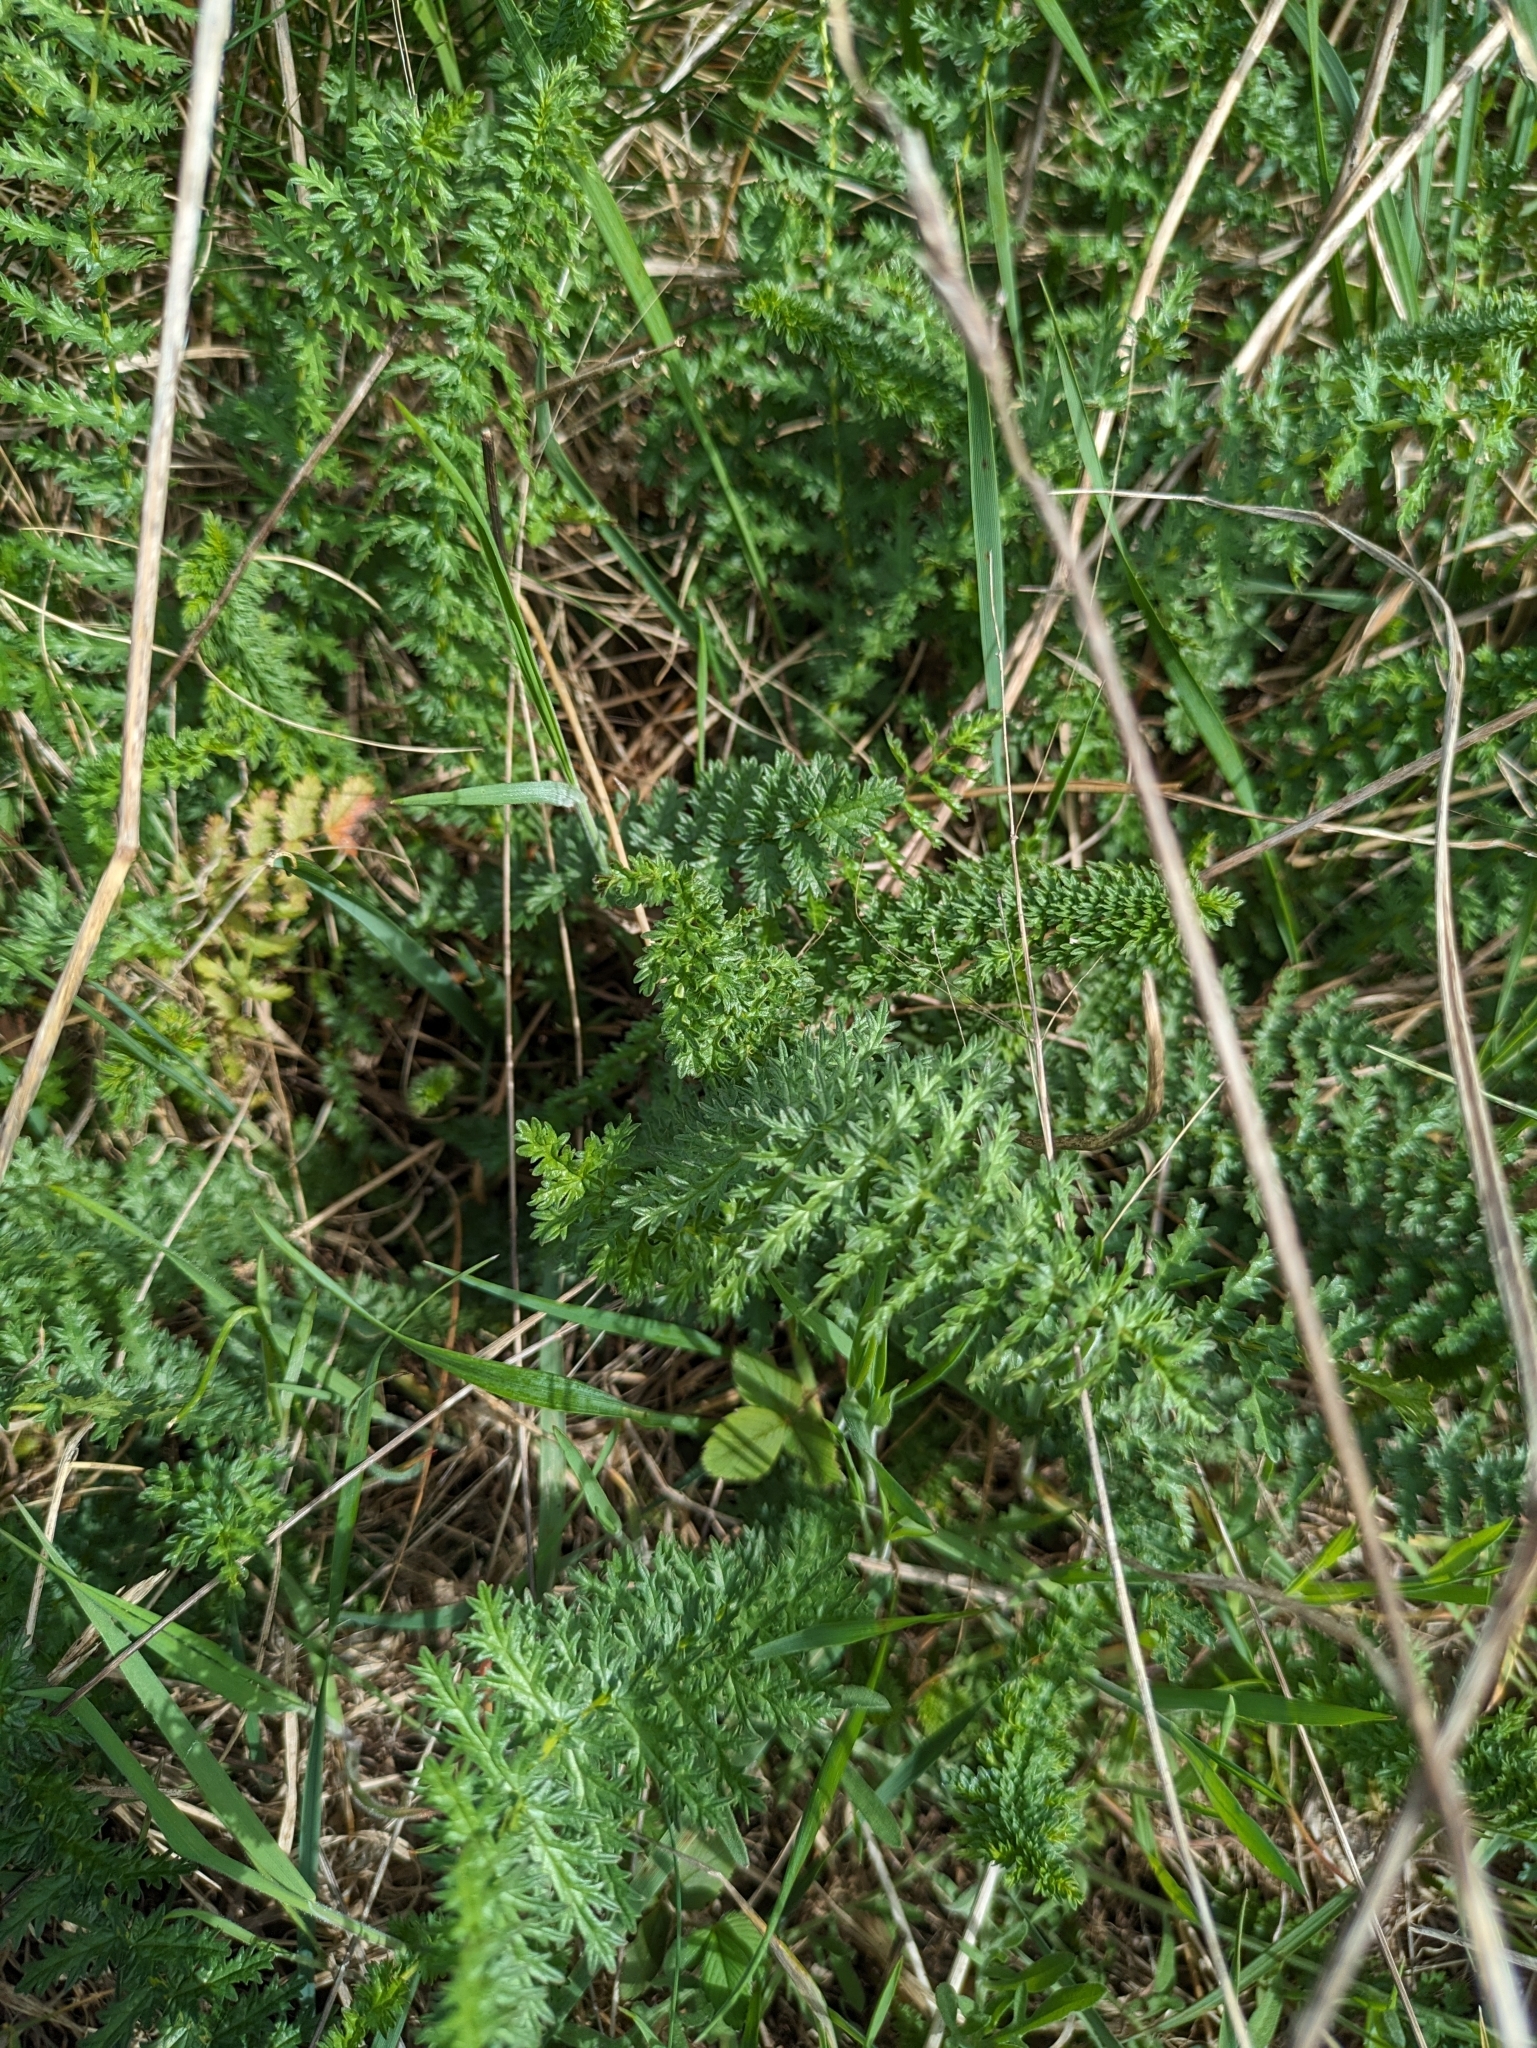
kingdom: Plantae
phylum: Tracheophyta
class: Magnoliopsida
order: Rosales
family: Rosaceae
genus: Filipendula
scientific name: Filipendula vulgaris
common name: Dropwort
